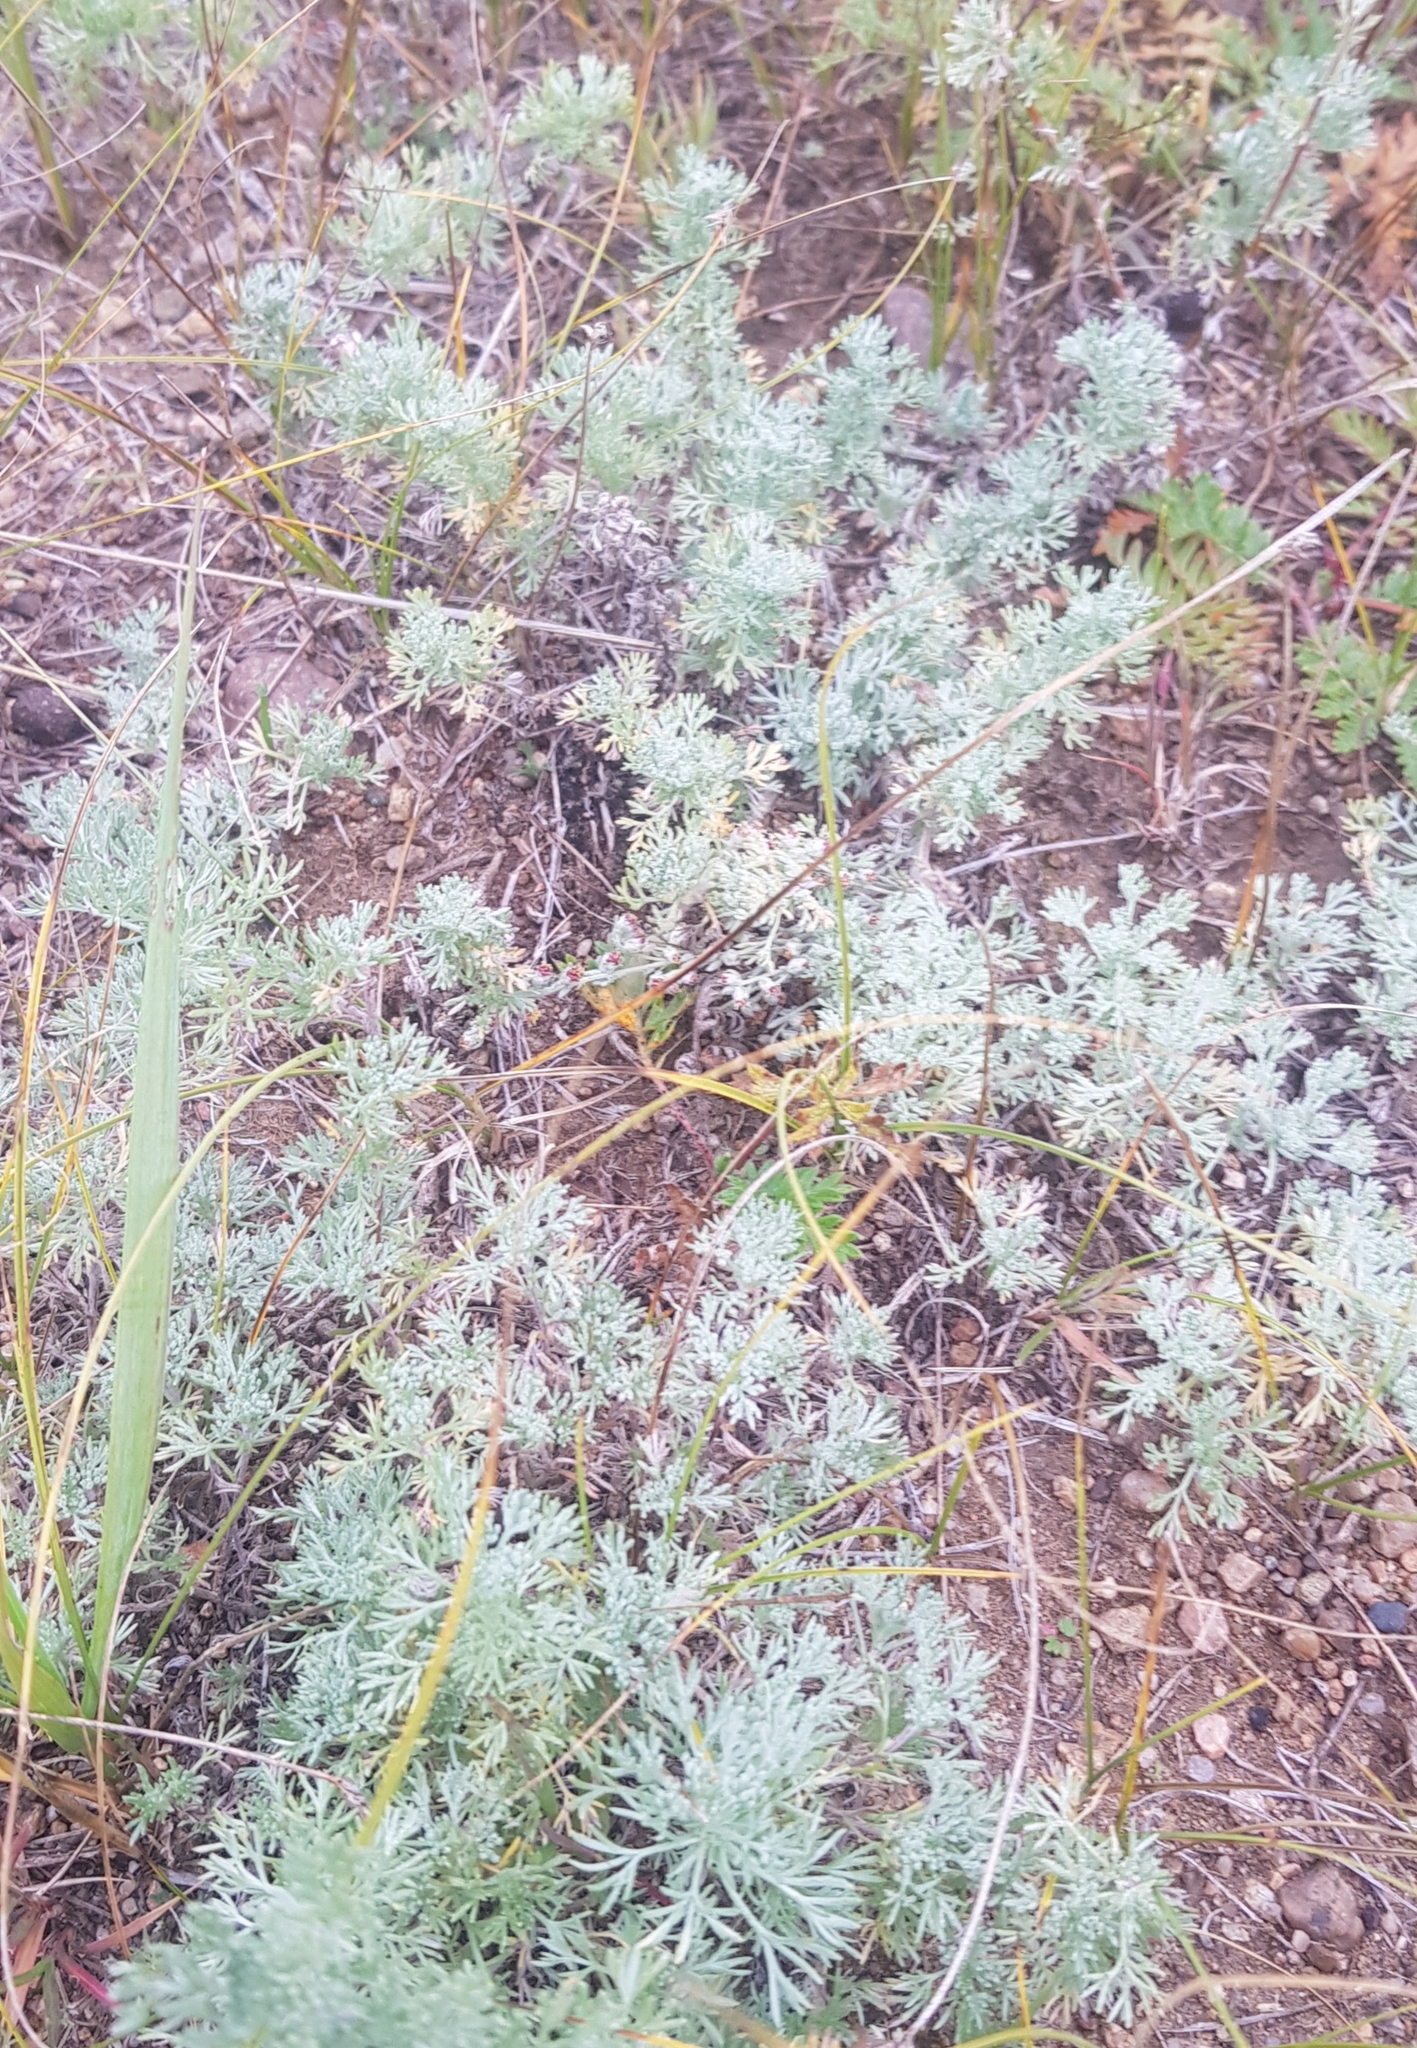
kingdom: Plantae
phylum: Tracheophyta
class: Magnoliopsida
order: Asterales
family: Asteraceae
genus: Artemisia
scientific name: Artemisia frigida
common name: Prairie sagewort
